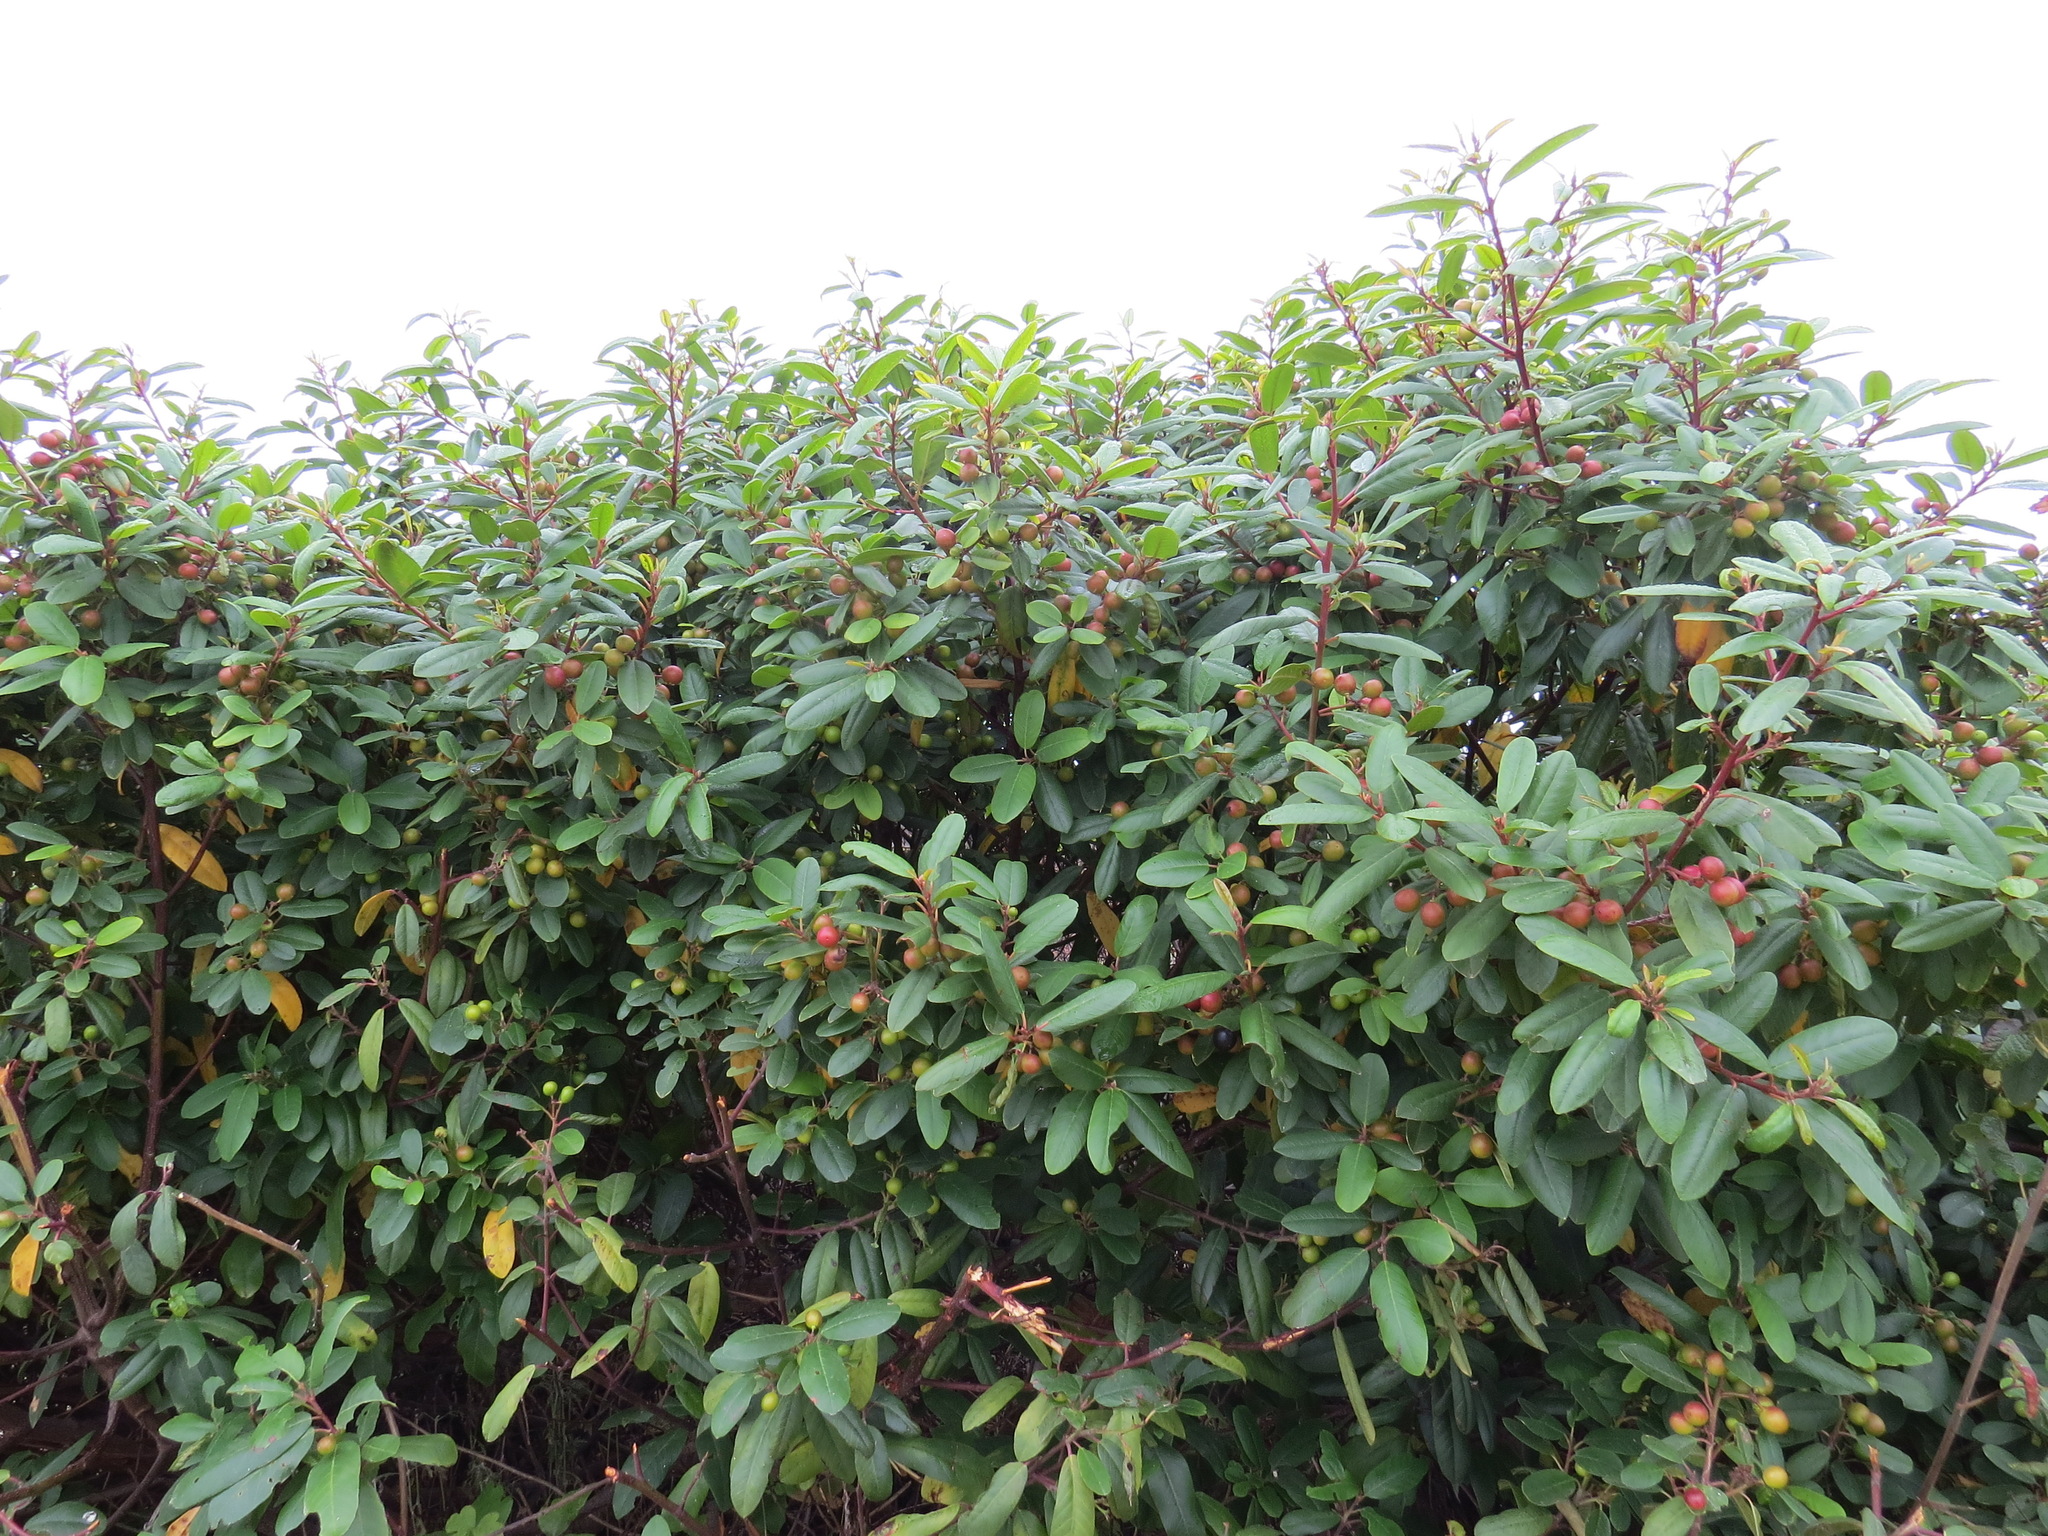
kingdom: Plantae
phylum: Tracheophyta
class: Magnoliopsida
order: Rosales
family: Rhamnaceae
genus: Frangula
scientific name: Frangula californica
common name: California buckthorn
